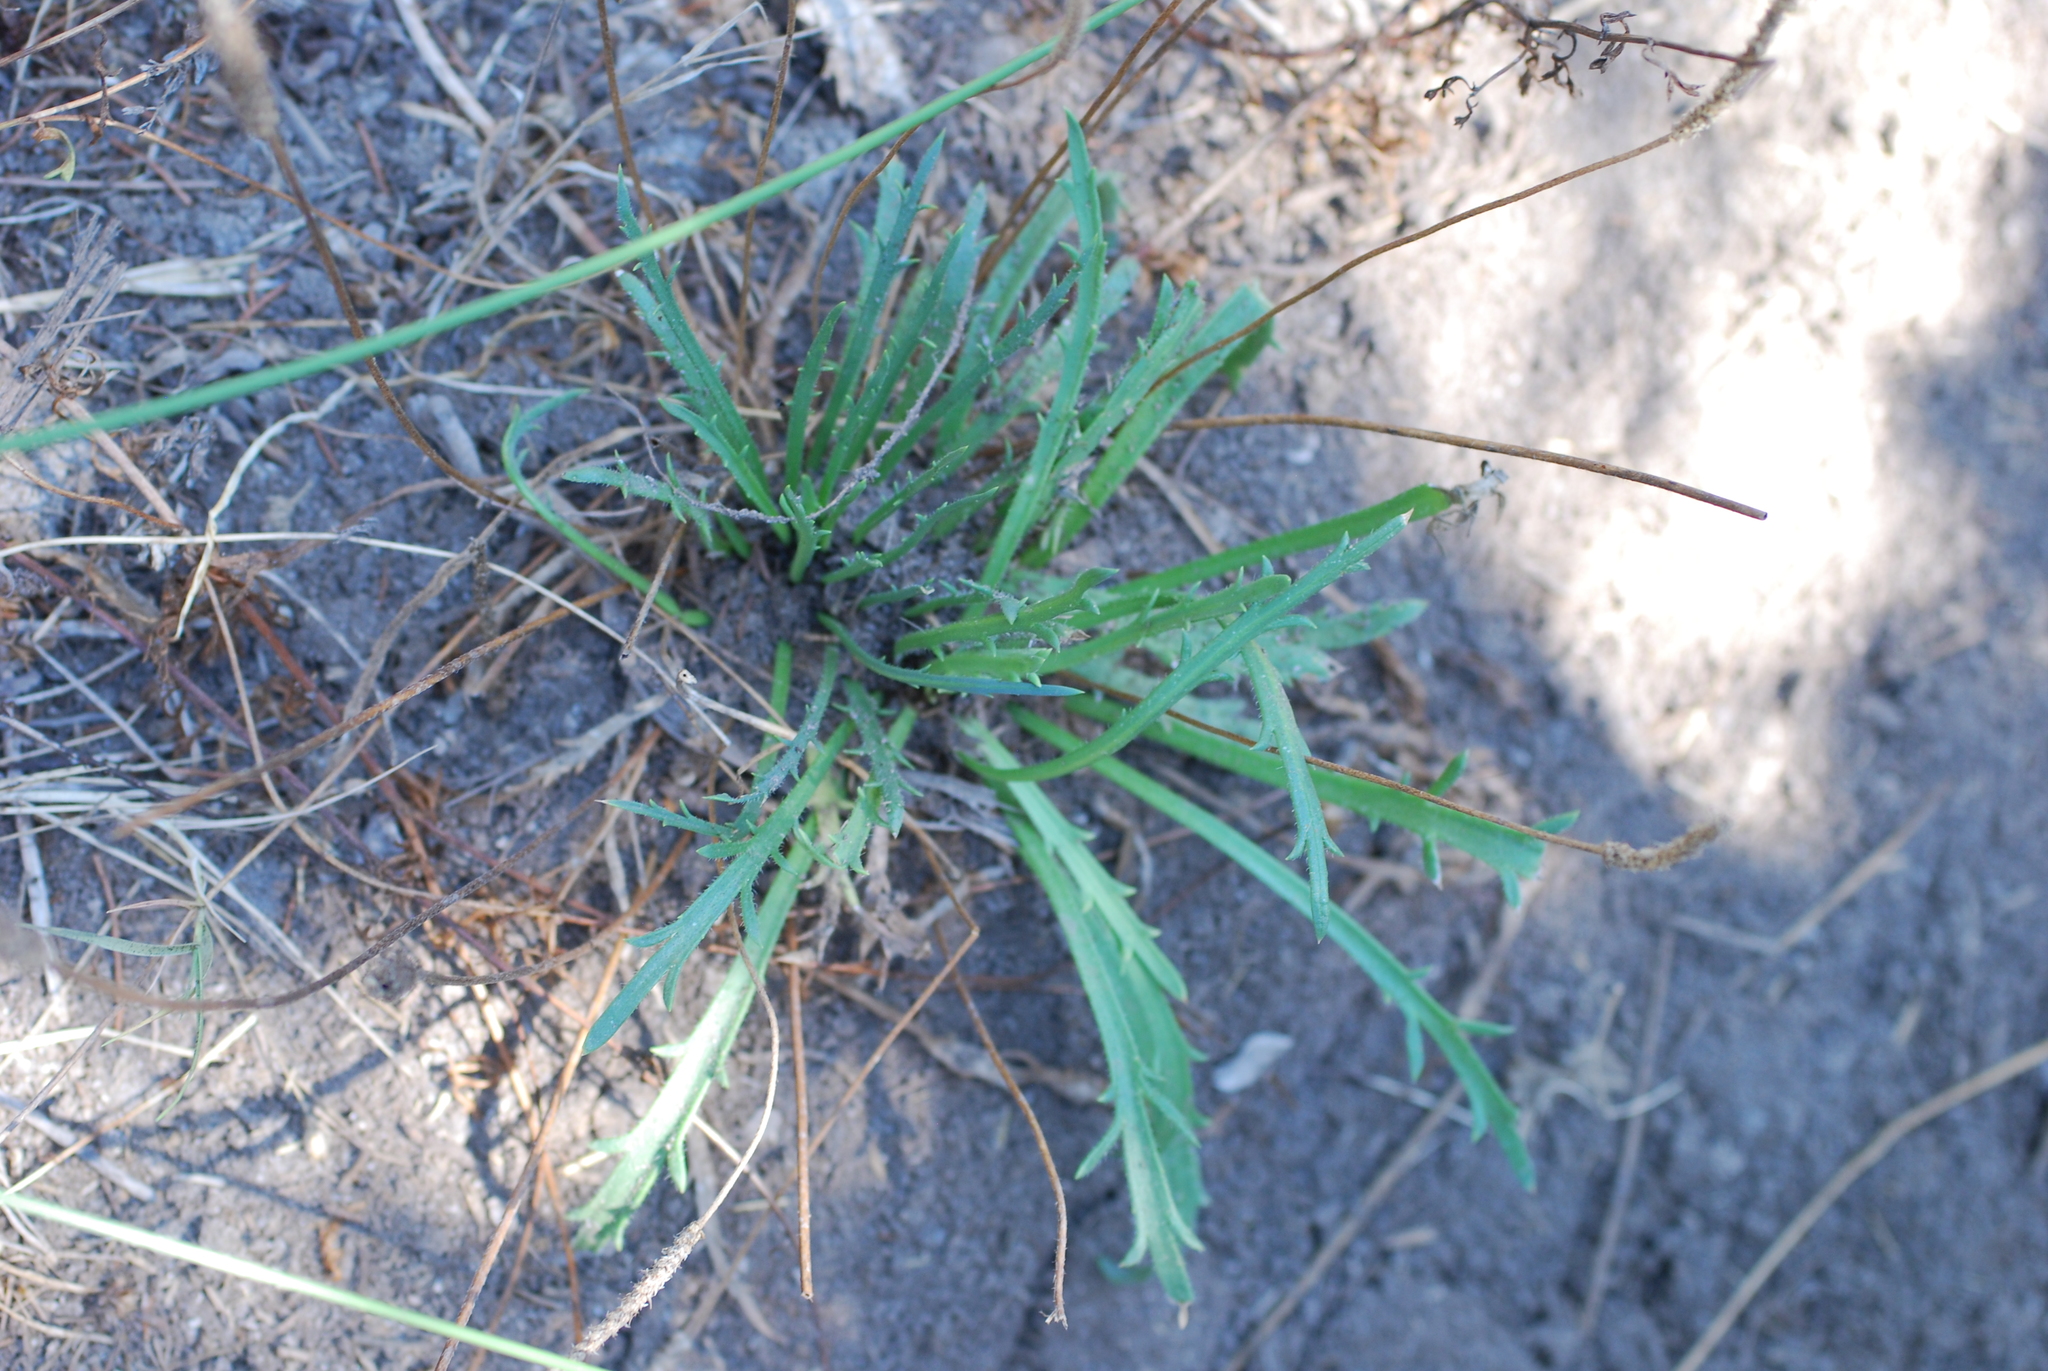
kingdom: Plantae
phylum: Tracheophyta
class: Magnoliopsida
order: Lamiales
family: Plantaginaceae
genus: Plantago
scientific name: Plantago coronopus
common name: Buck's-horn plantain
